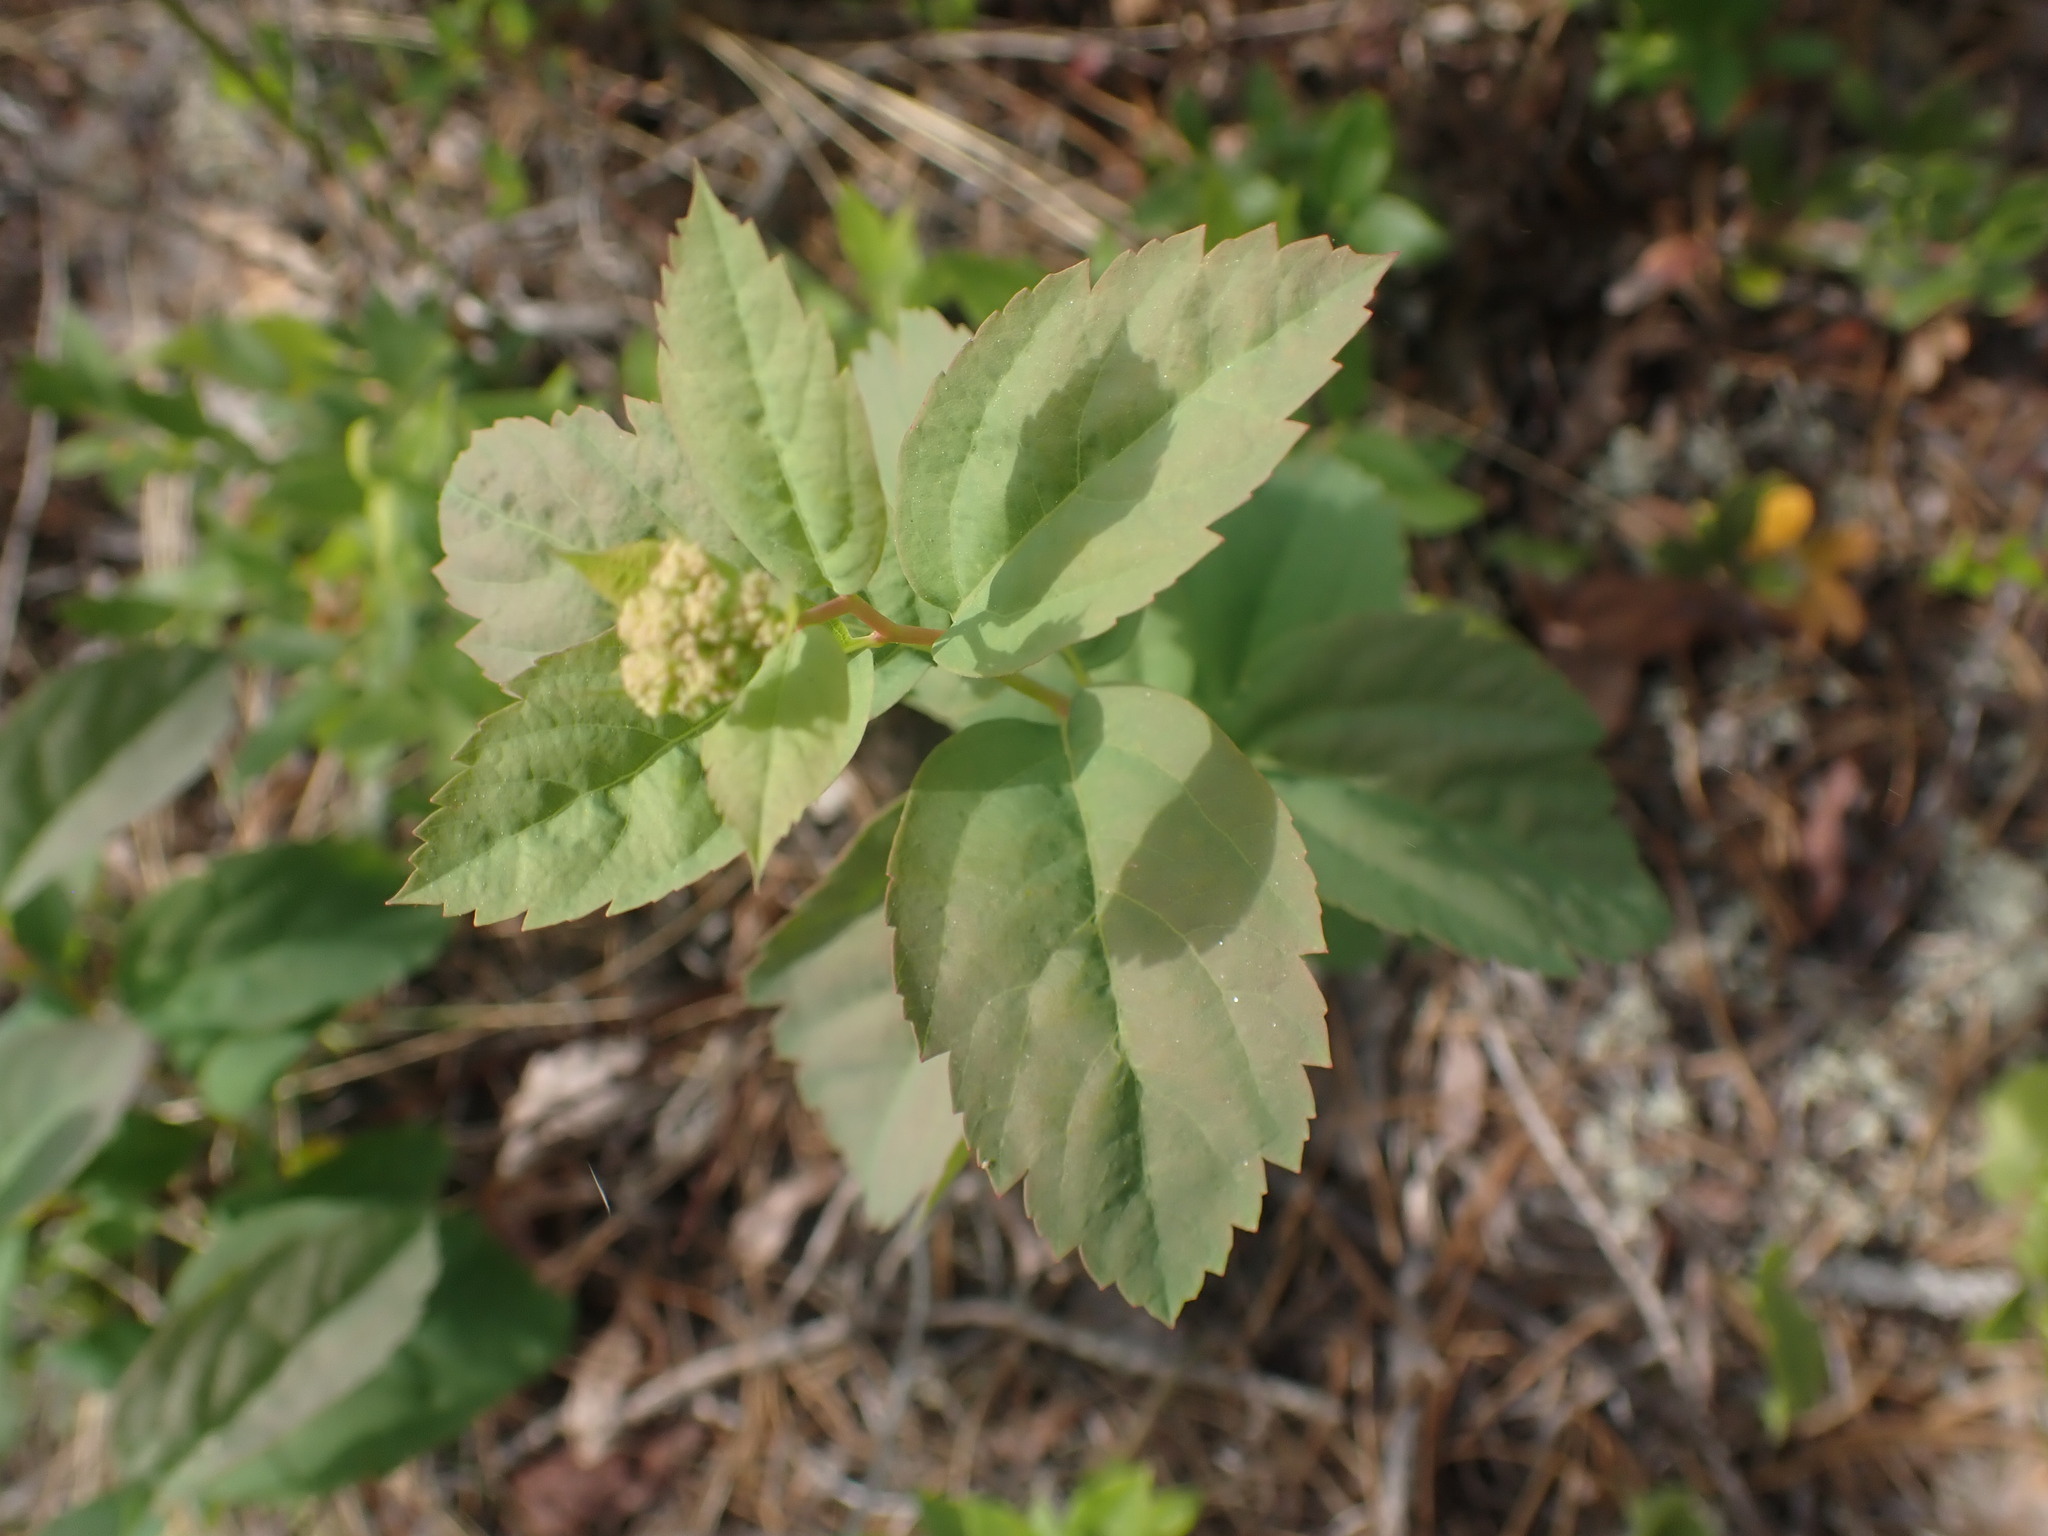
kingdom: Plantae
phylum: Tracheophyta
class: Magnoliopsida
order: Rosales
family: Rosaceae
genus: Spiraea
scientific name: Spiraea lucida
